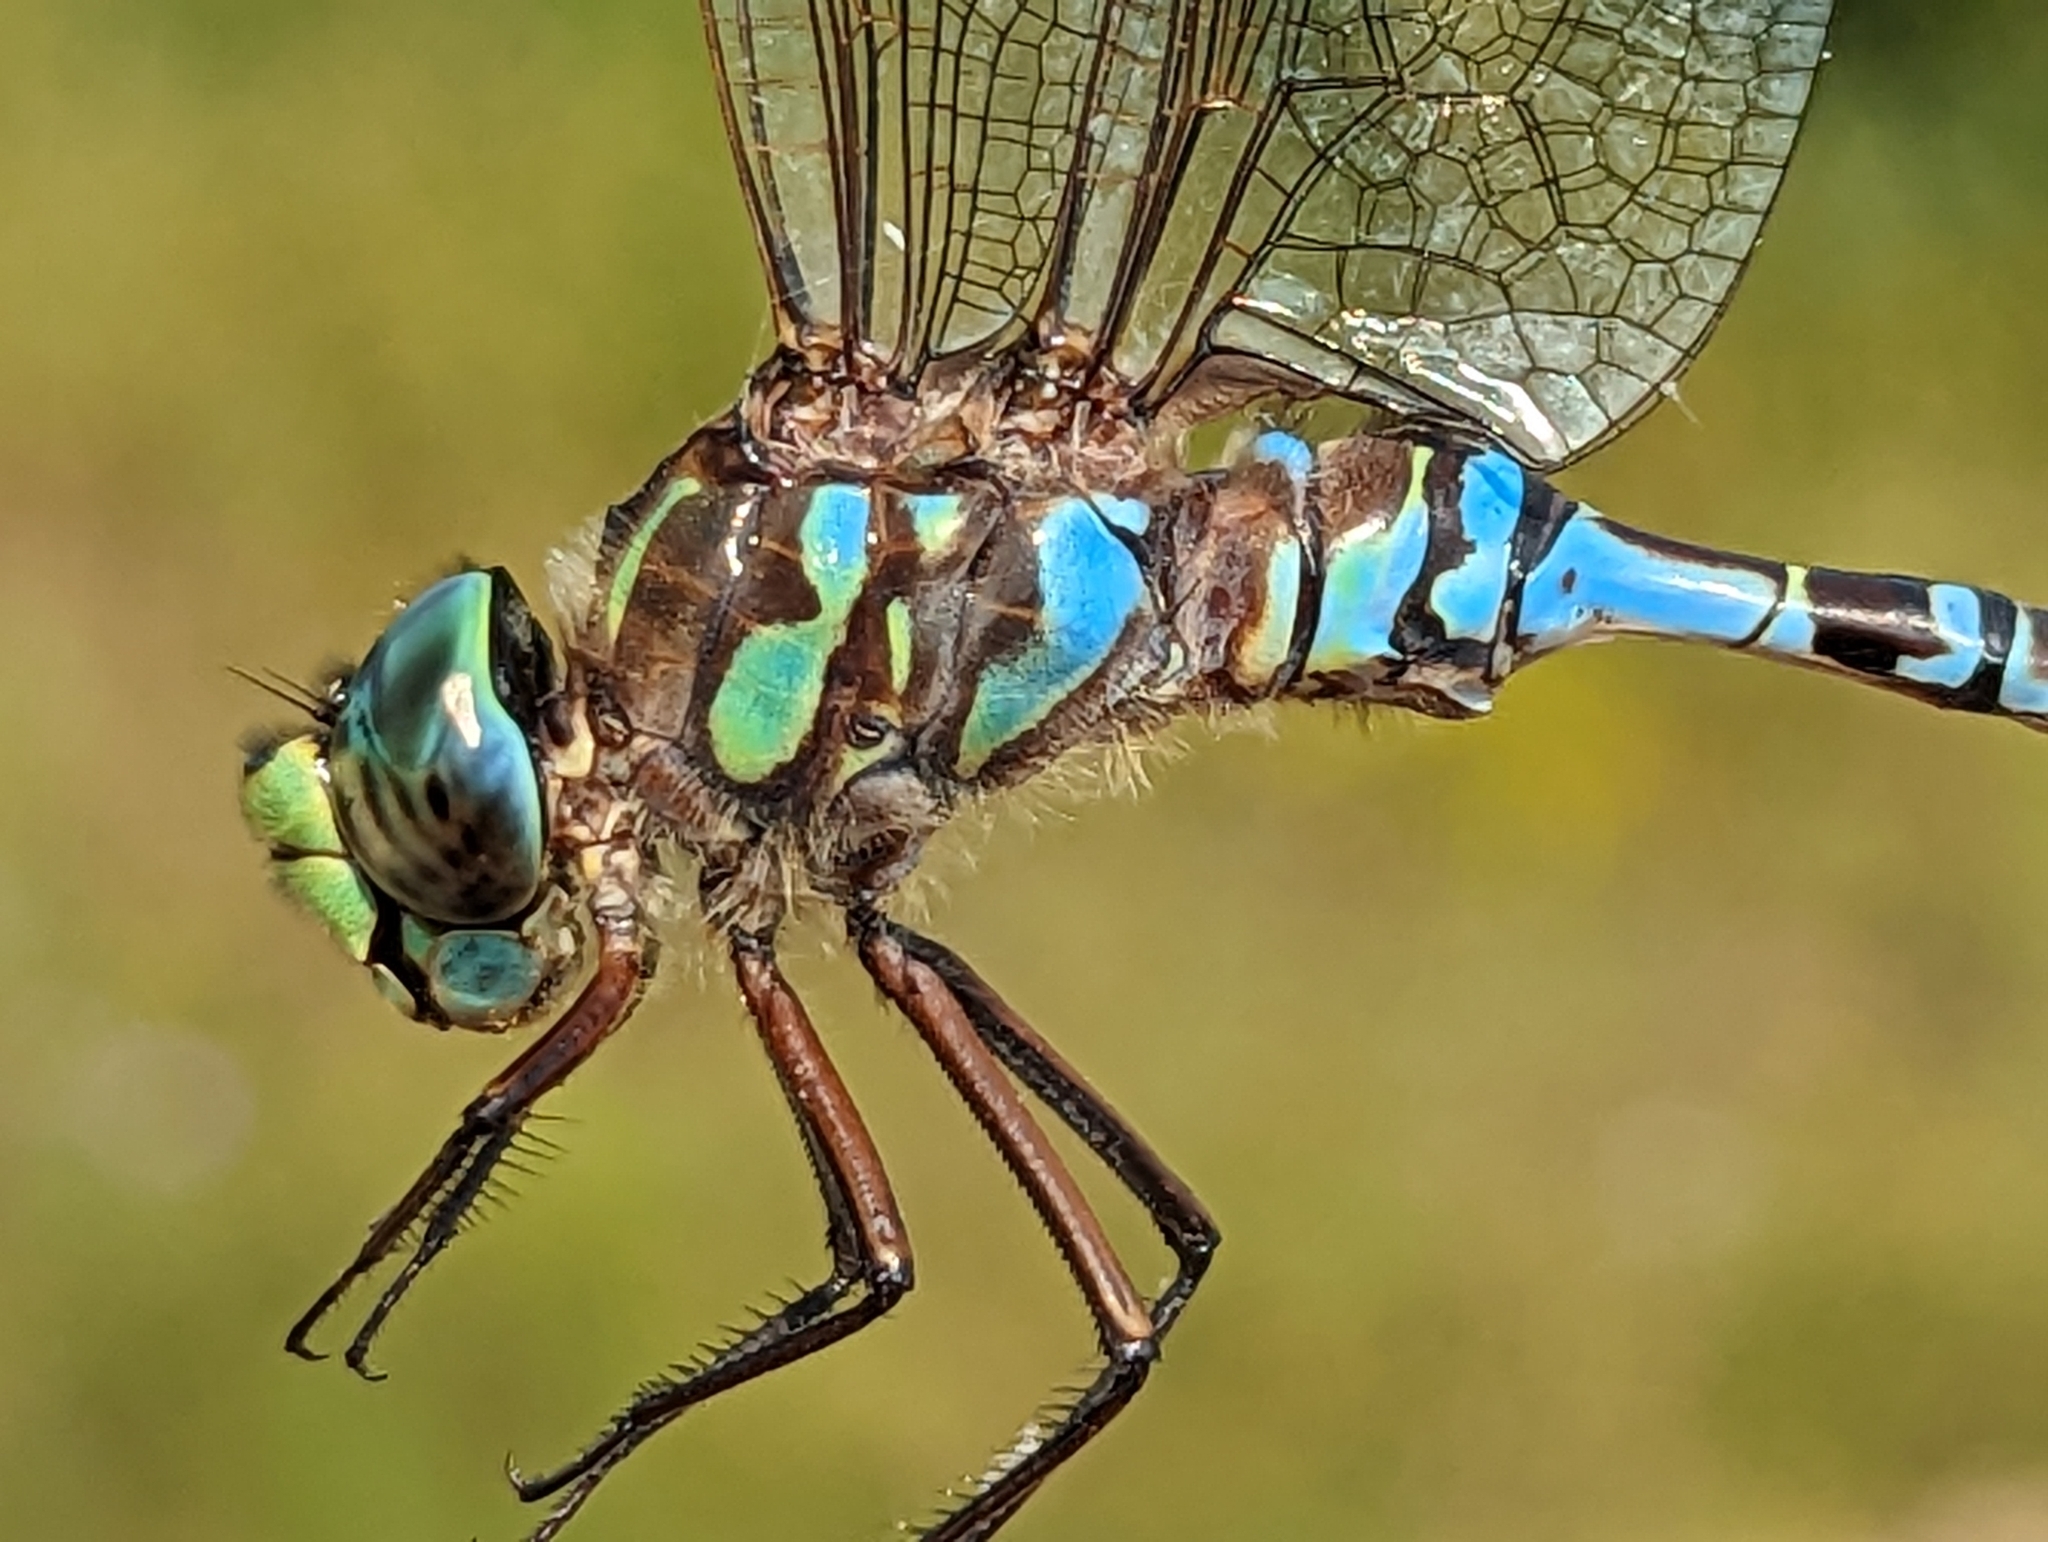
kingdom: Animalia
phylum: Arthropoda
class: Insecta
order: Odonata
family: Aeshnidae
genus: Aeshna
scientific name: Aeshna eremita
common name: Lake darner
